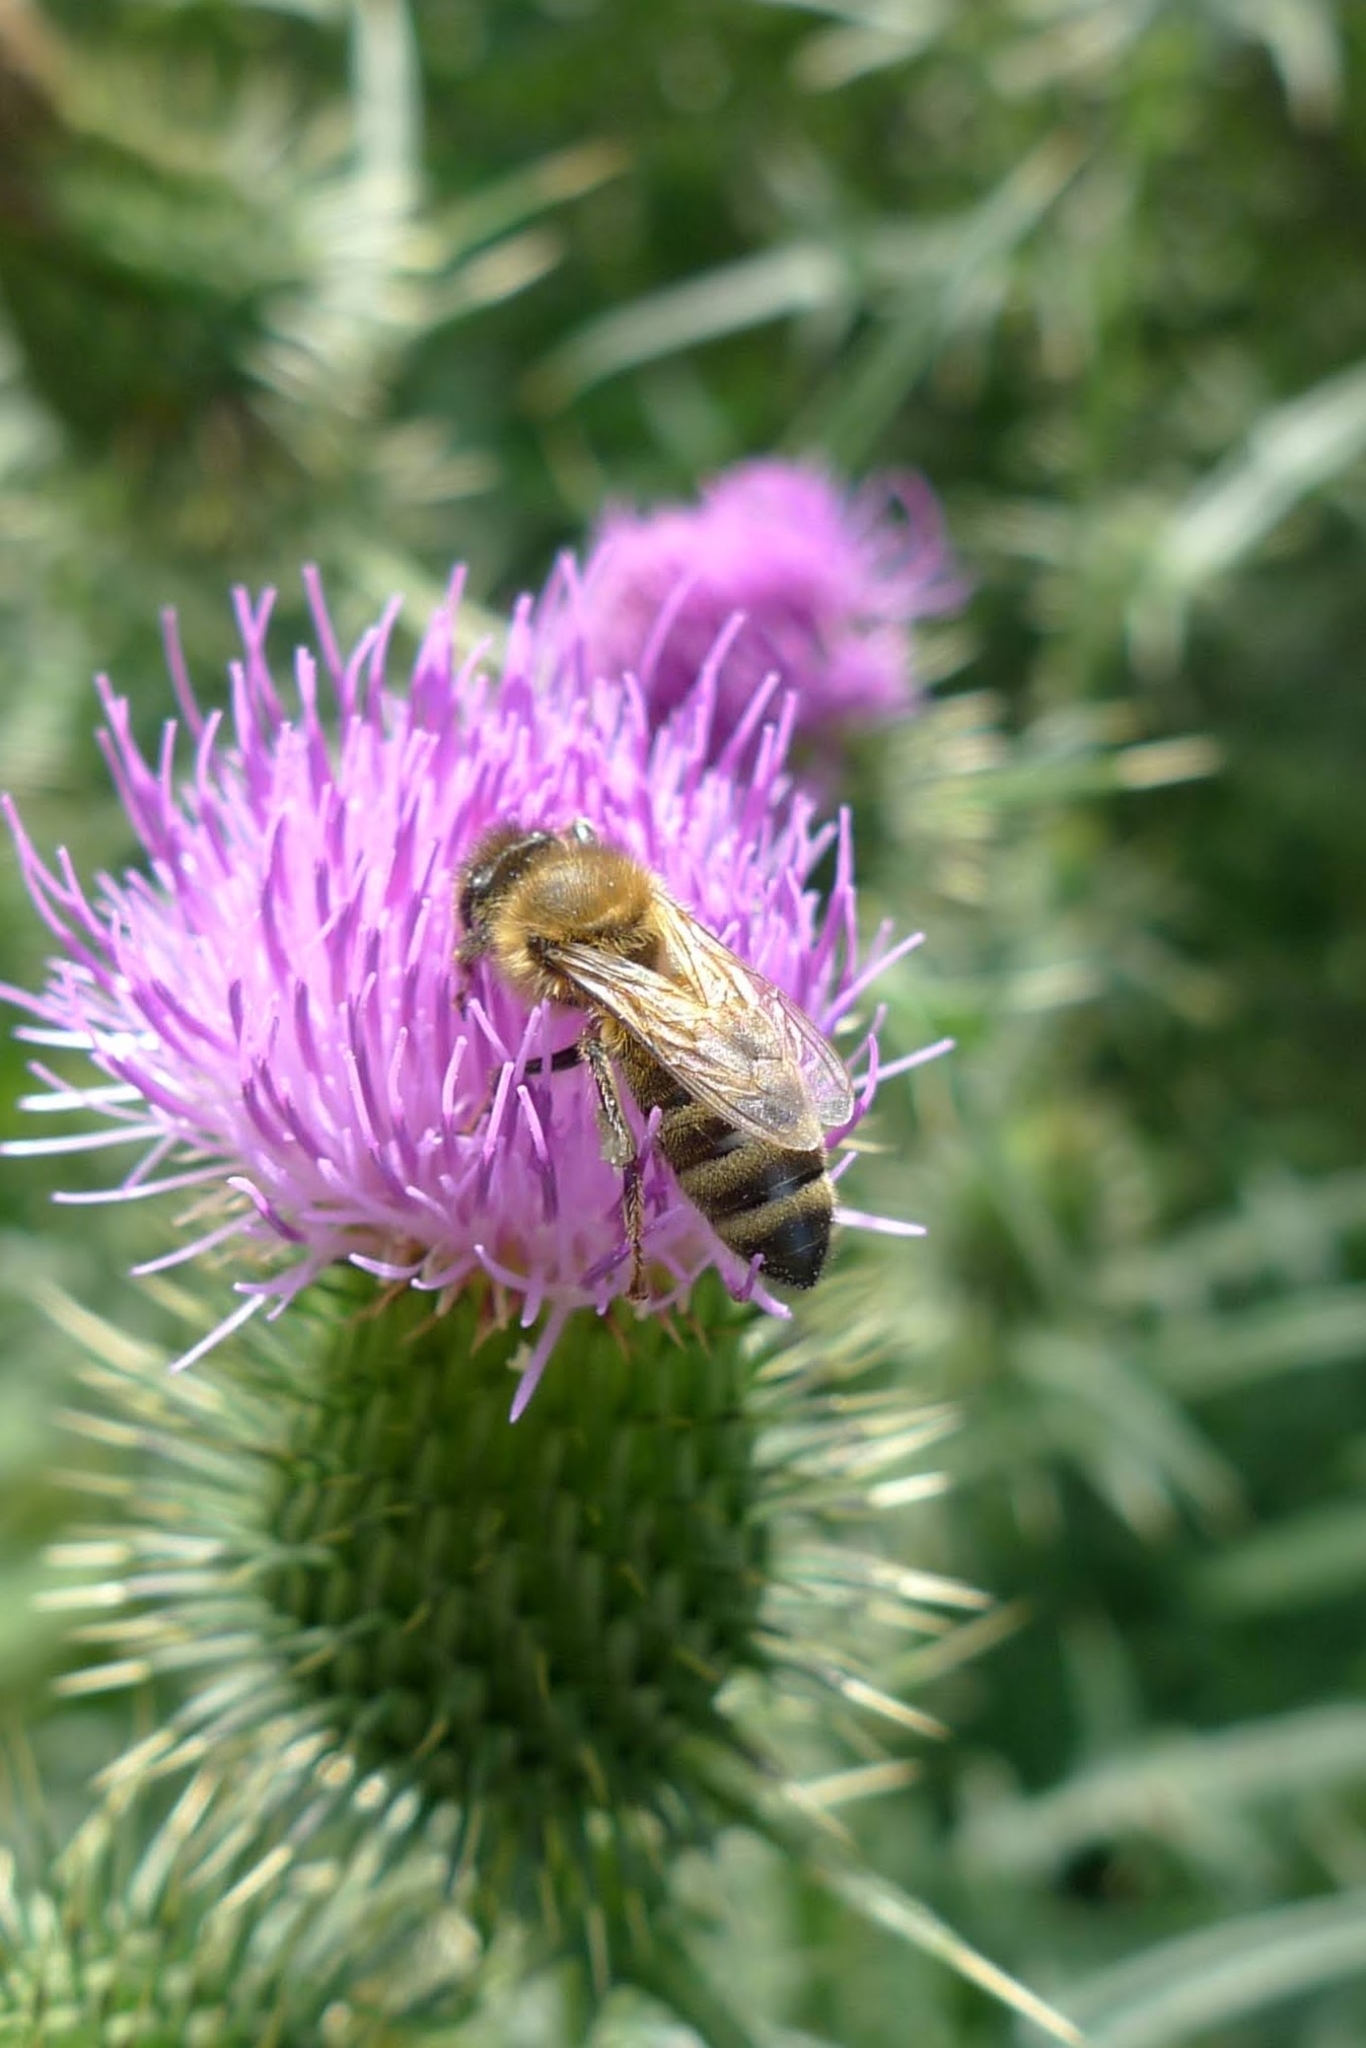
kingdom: Animalia
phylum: Arthropoda
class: Insecta
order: Hymenoptera
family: Apidae
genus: Apis
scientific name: Apis mellifera
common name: Honey bee
